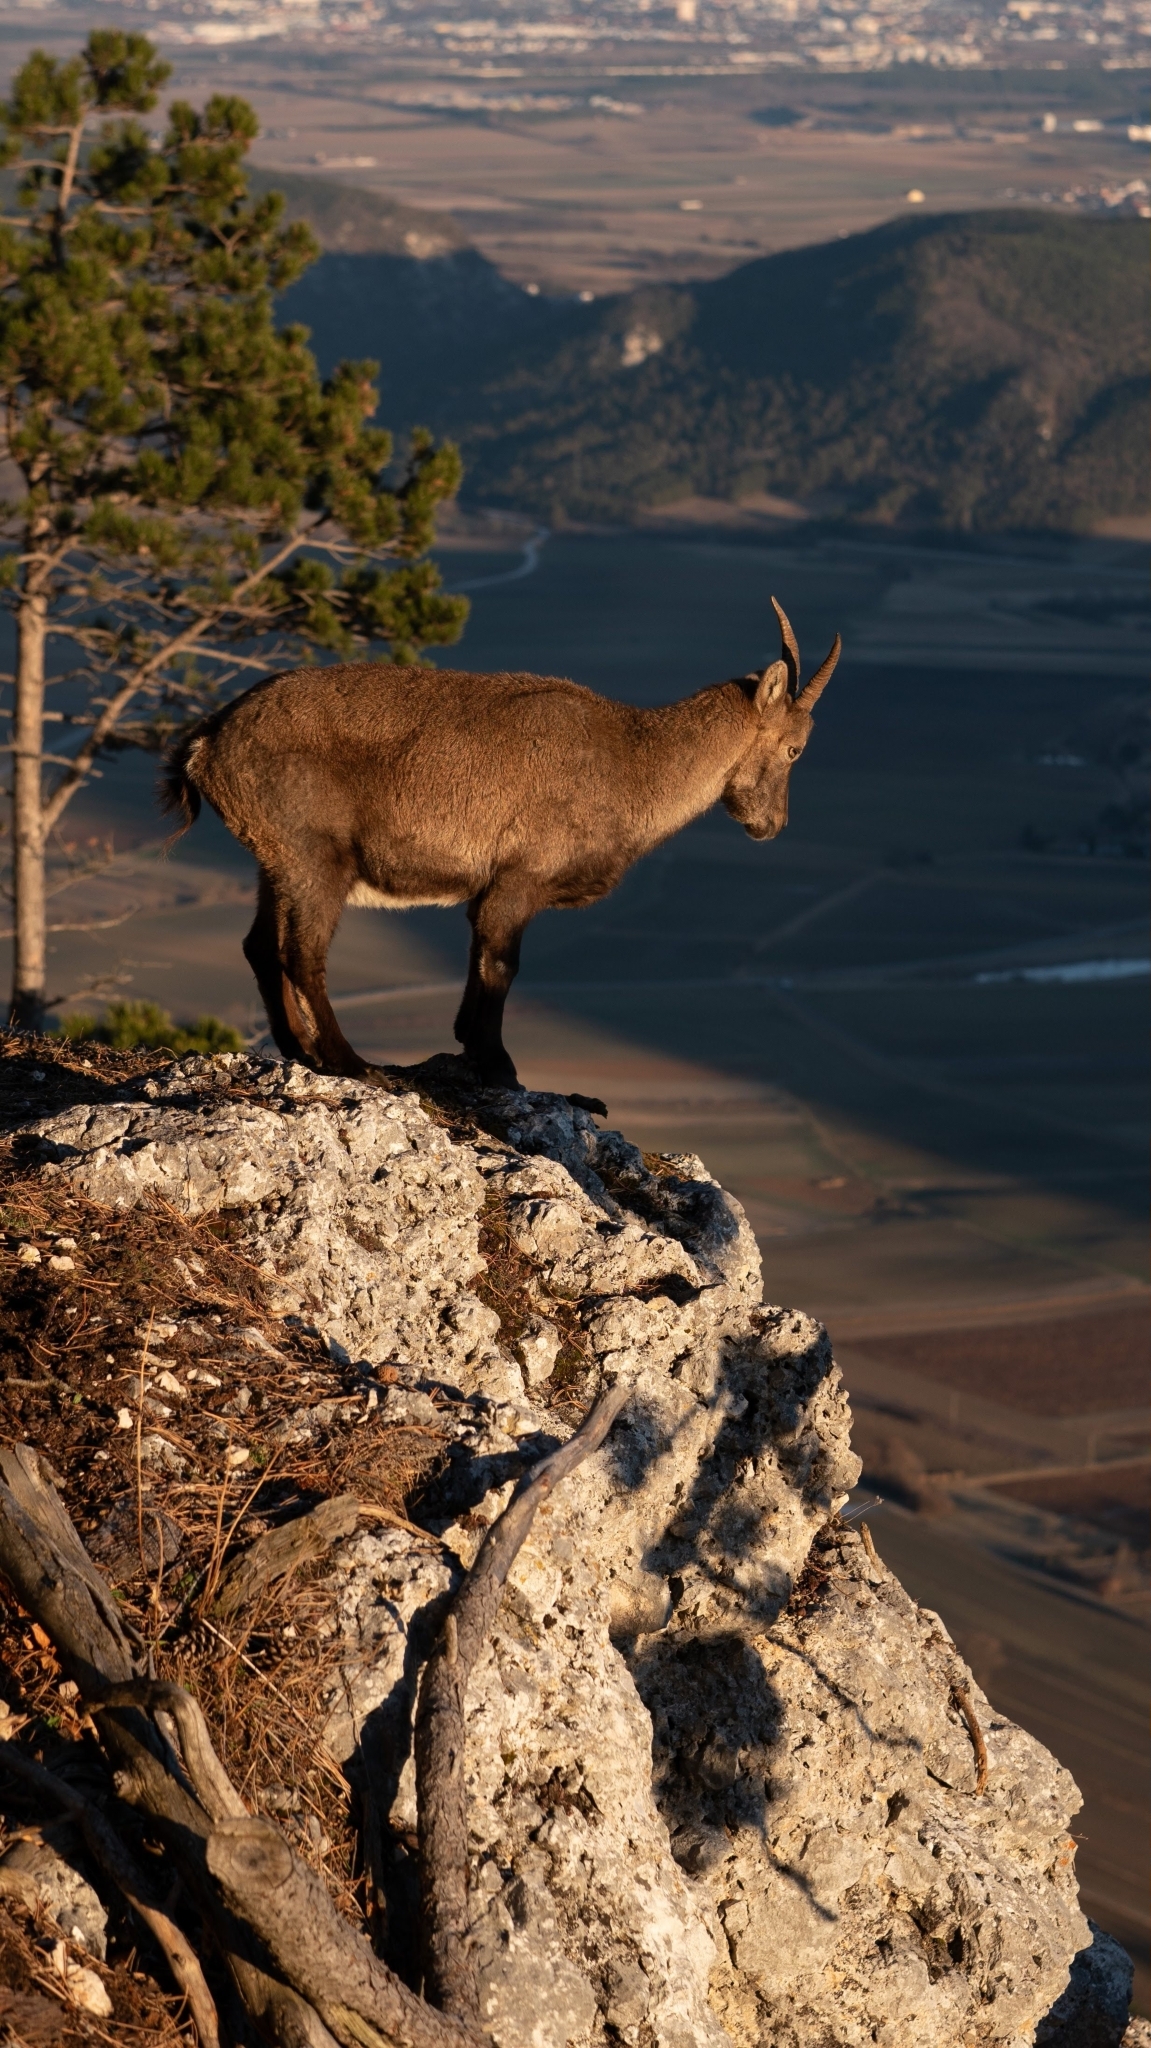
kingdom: Animalia
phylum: Chordata
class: Mammalia
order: Artiodactyla
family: Bovidae
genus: Capra
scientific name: Capra ibex
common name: Alpine ibex
